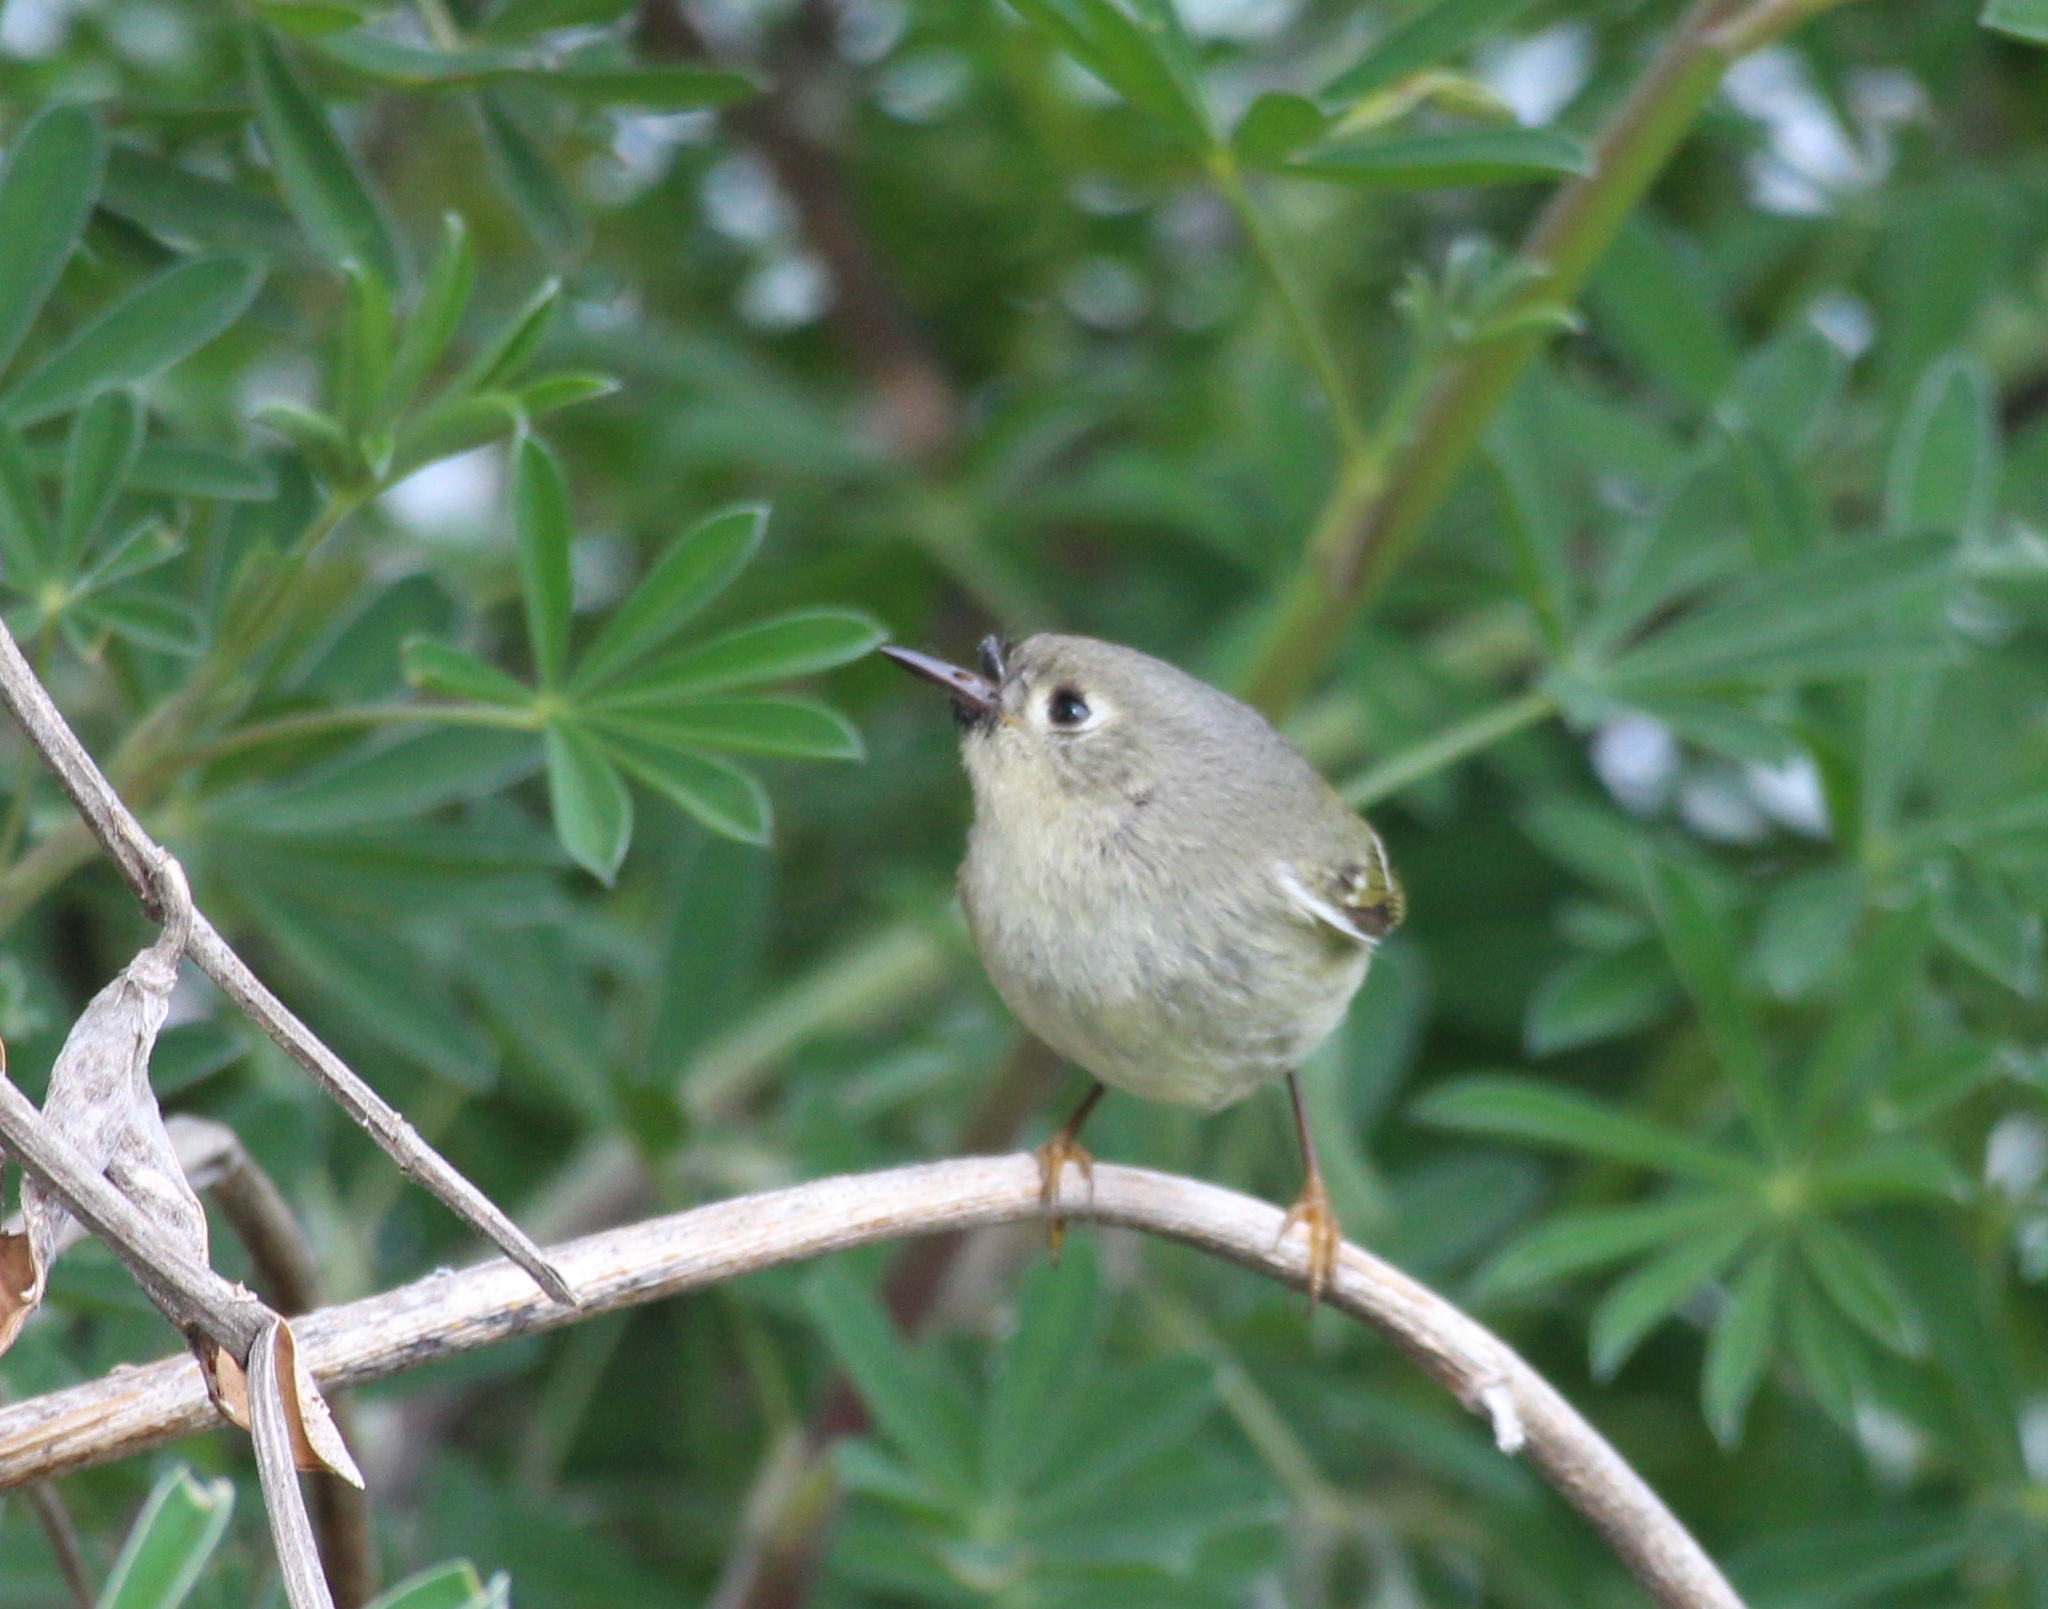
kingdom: Animalia
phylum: Chordata
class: Aves
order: Passeriformes
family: Regulidae
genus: Regulus
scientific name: Regulus calendula
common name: Ruby-crowned kinglet
